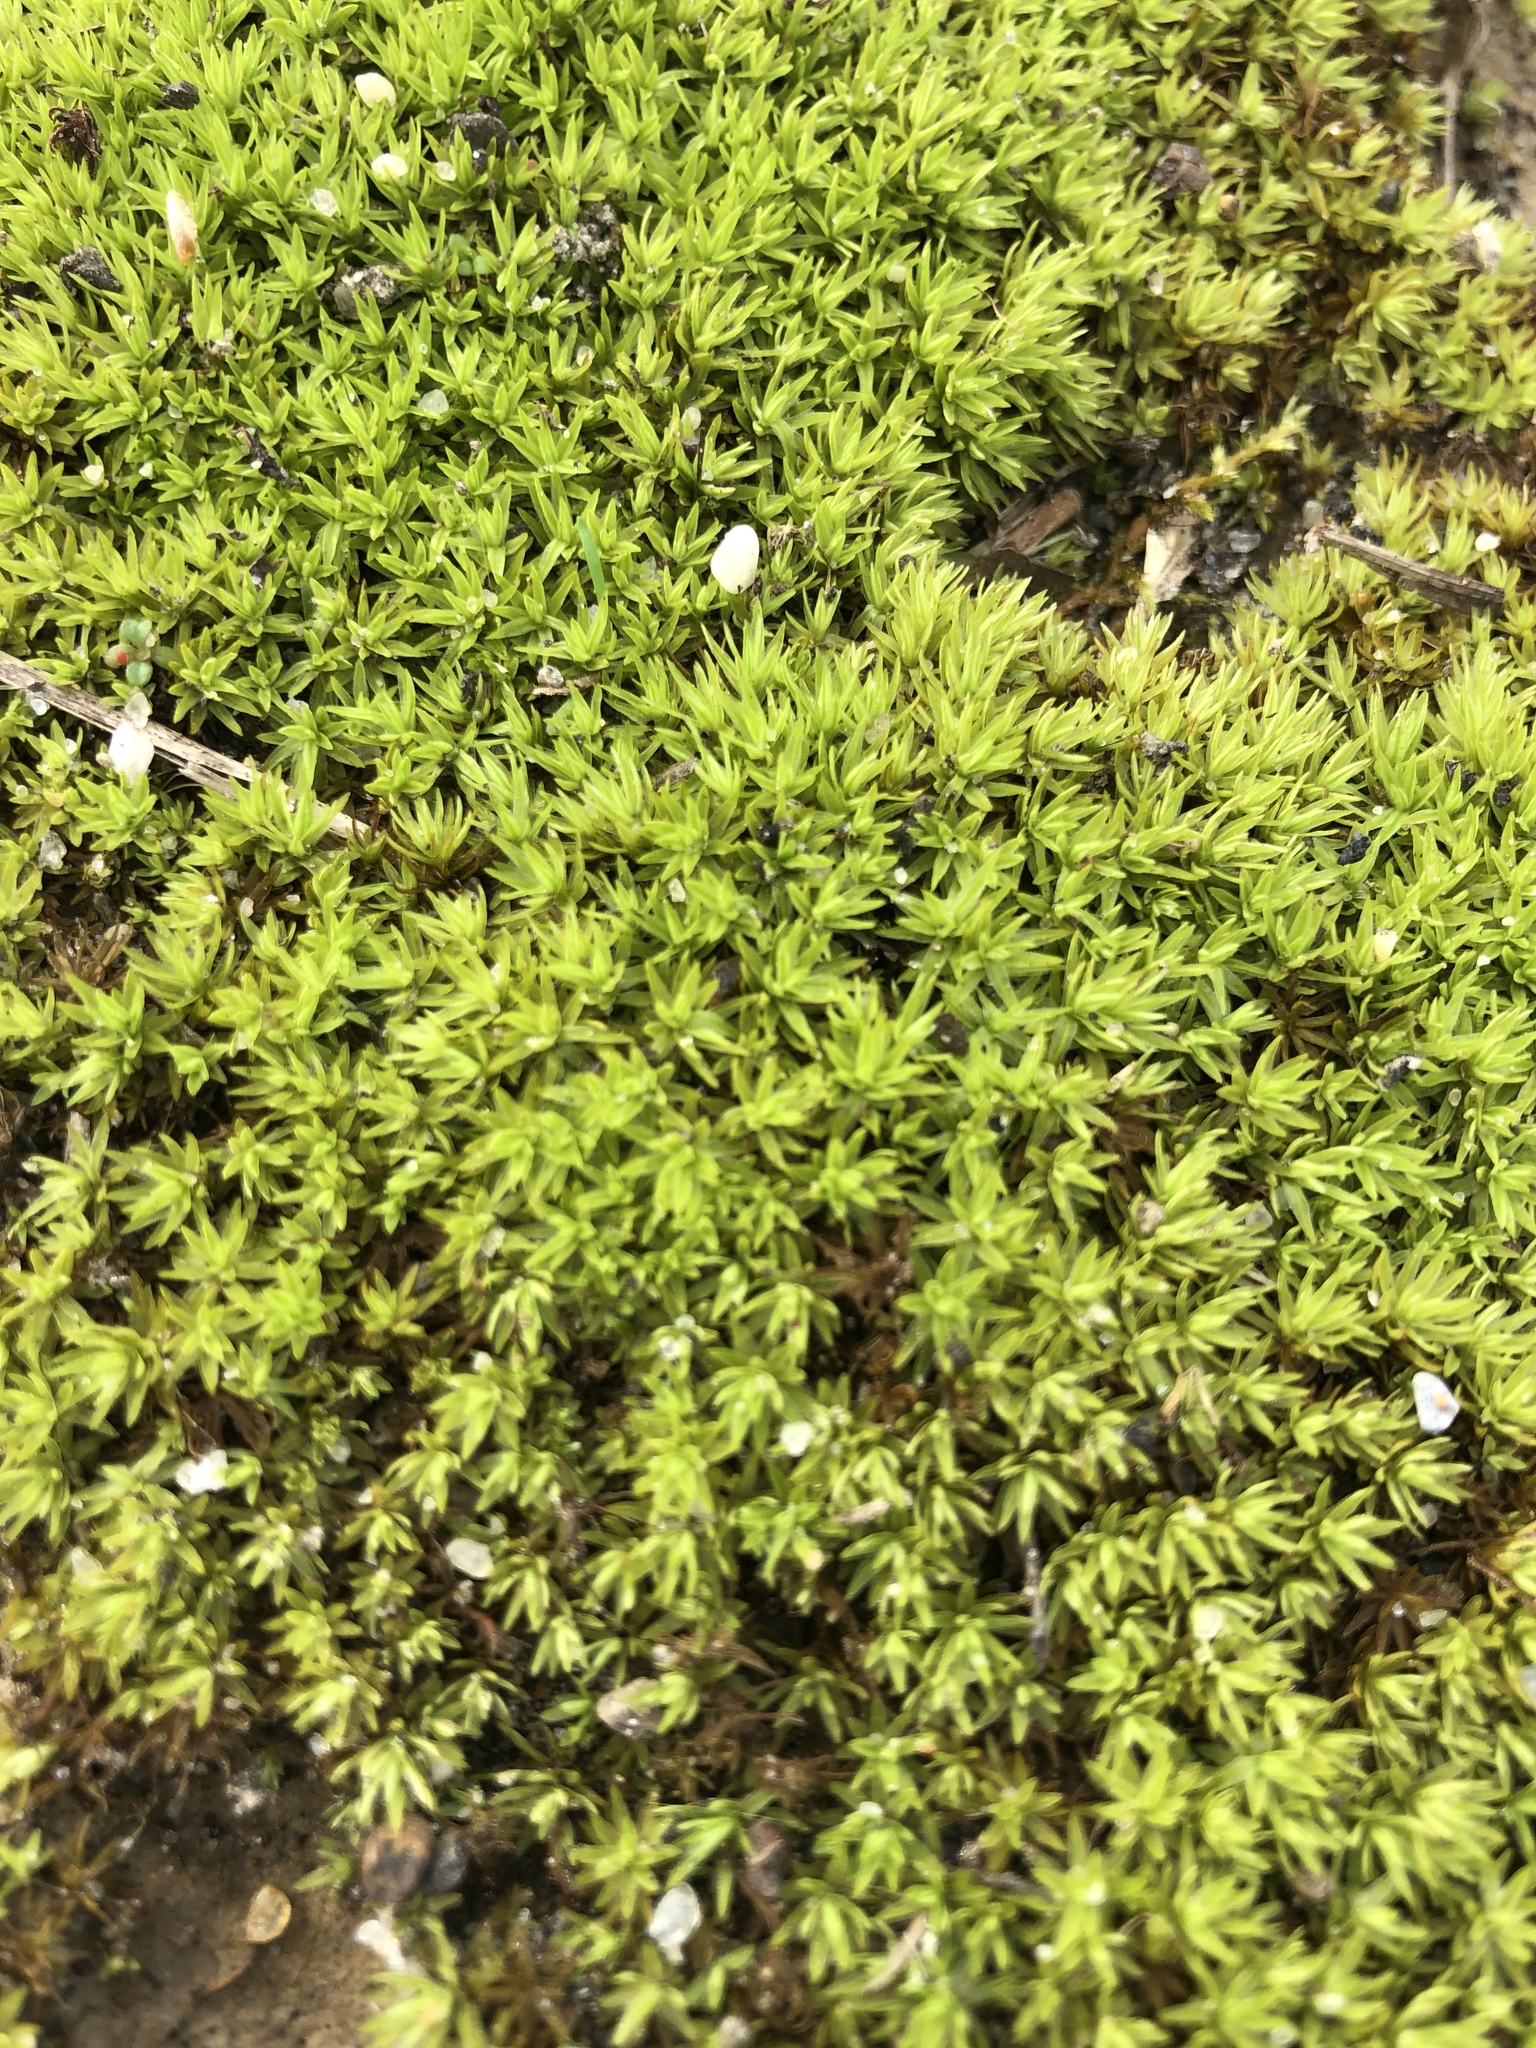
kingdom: Plantae
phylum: Bryophyta
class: Polytrichopsida
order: Polytrichales
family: Polytrichaceae
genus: Atrichum
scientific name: Atrichum angustatum
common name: Lesser smoothcap
